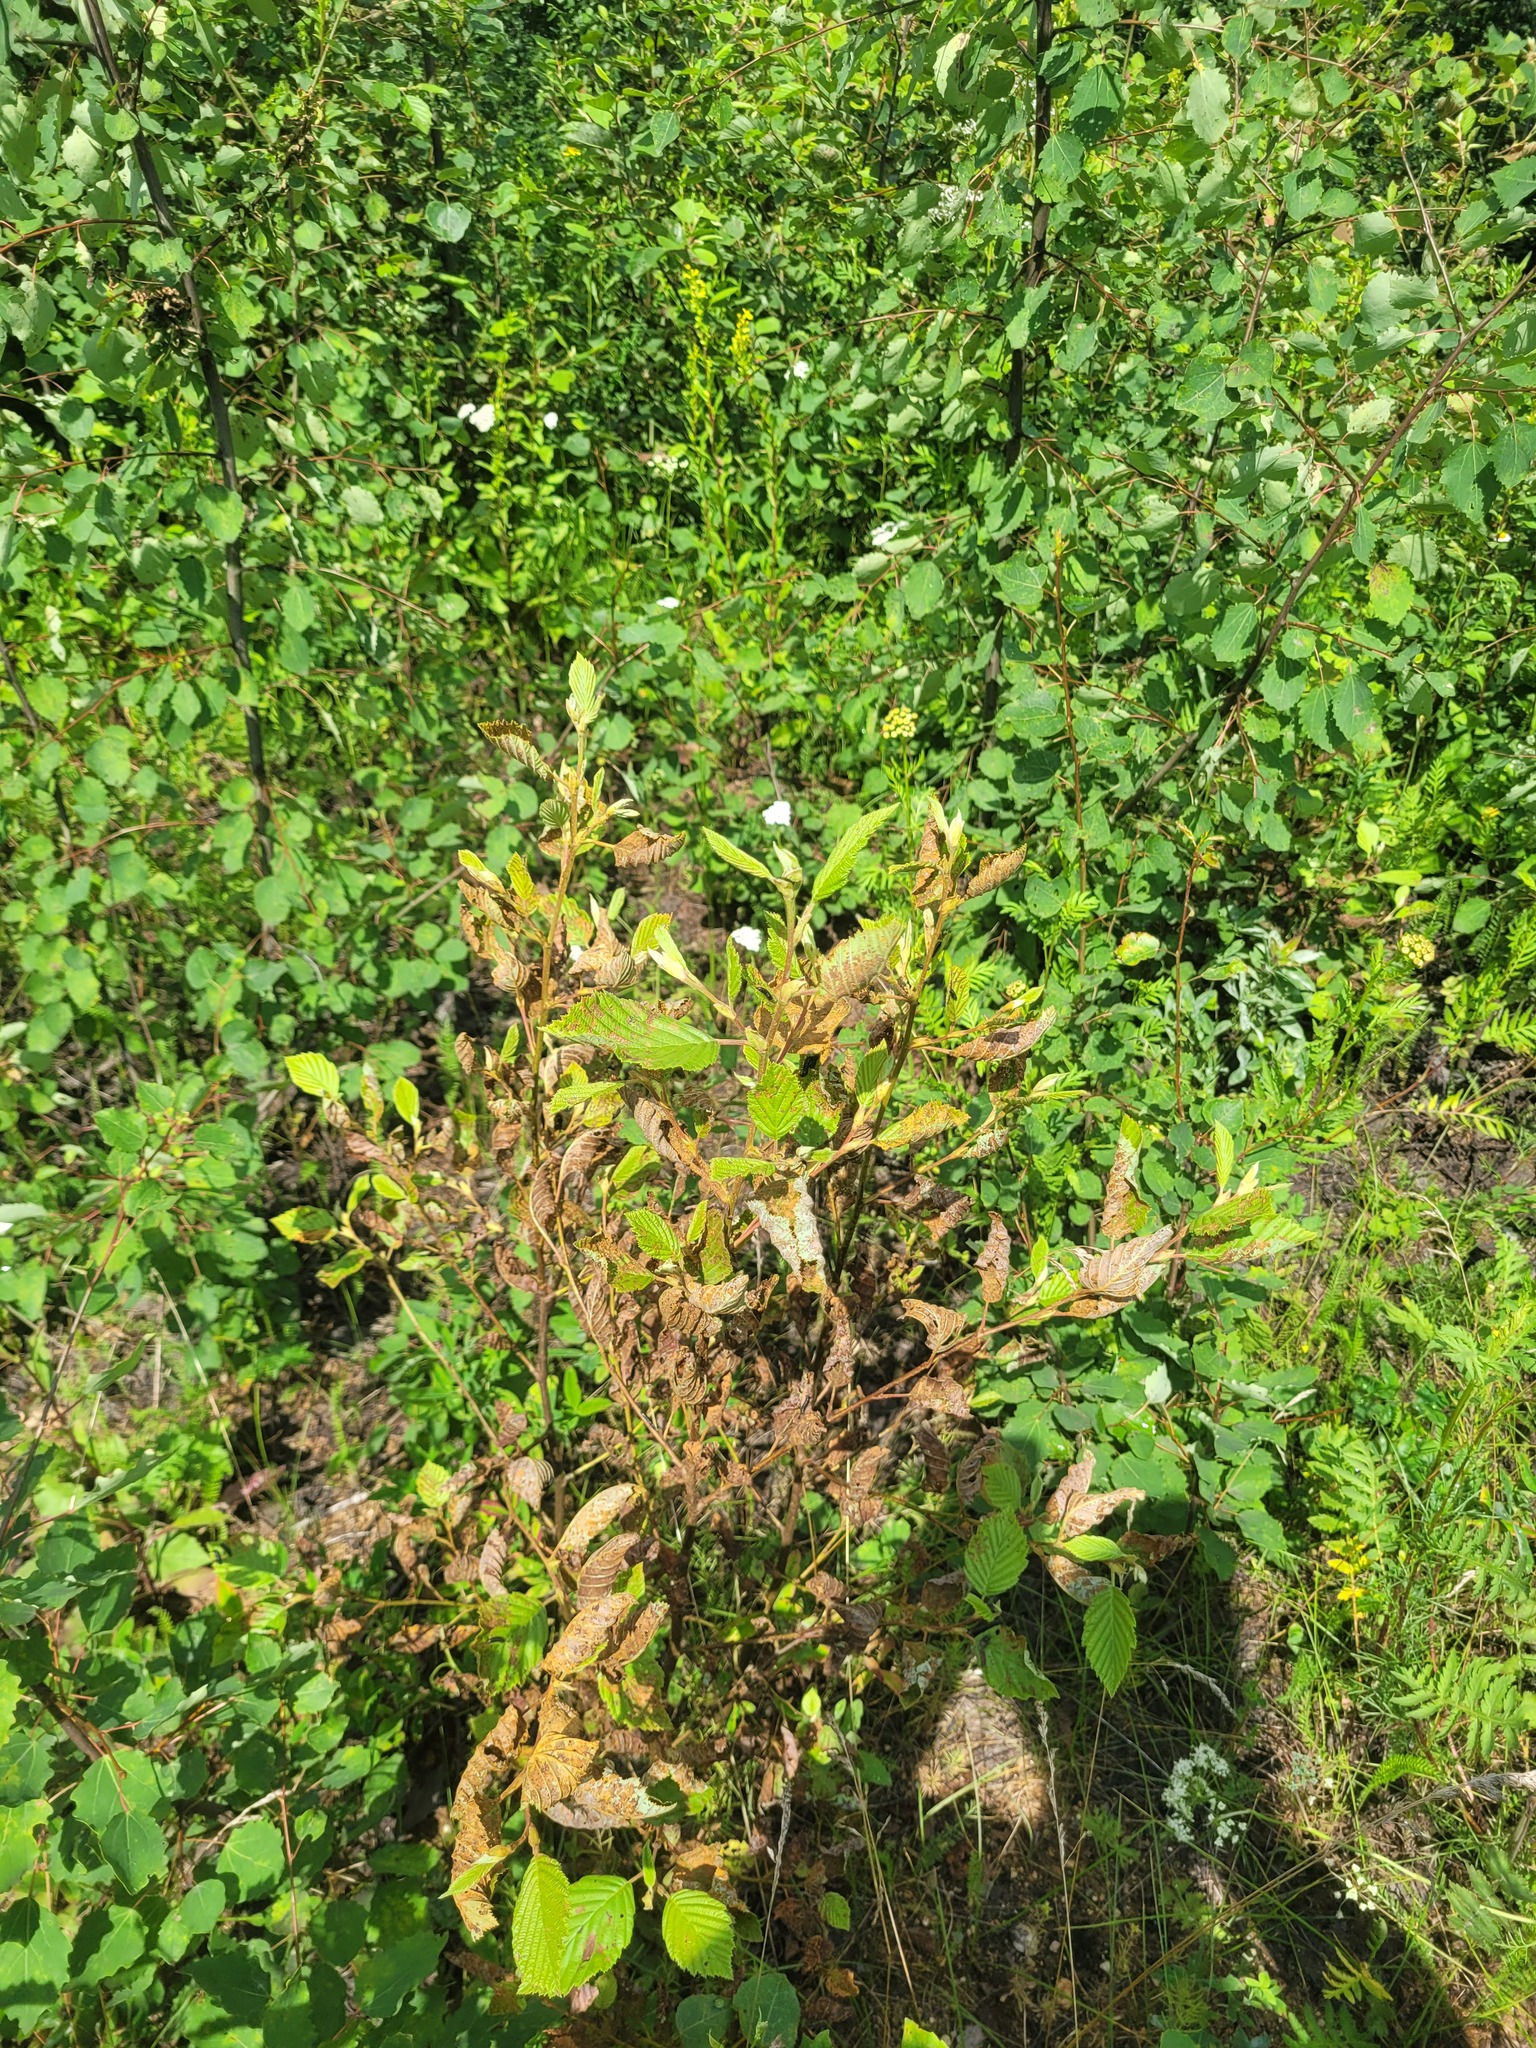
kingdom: Plantae
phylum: Tracheophyta
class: Magnoliopsida
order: Fagales
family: Betulaceae
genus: Alnus
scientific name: Alnus incana
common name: Grey alder
